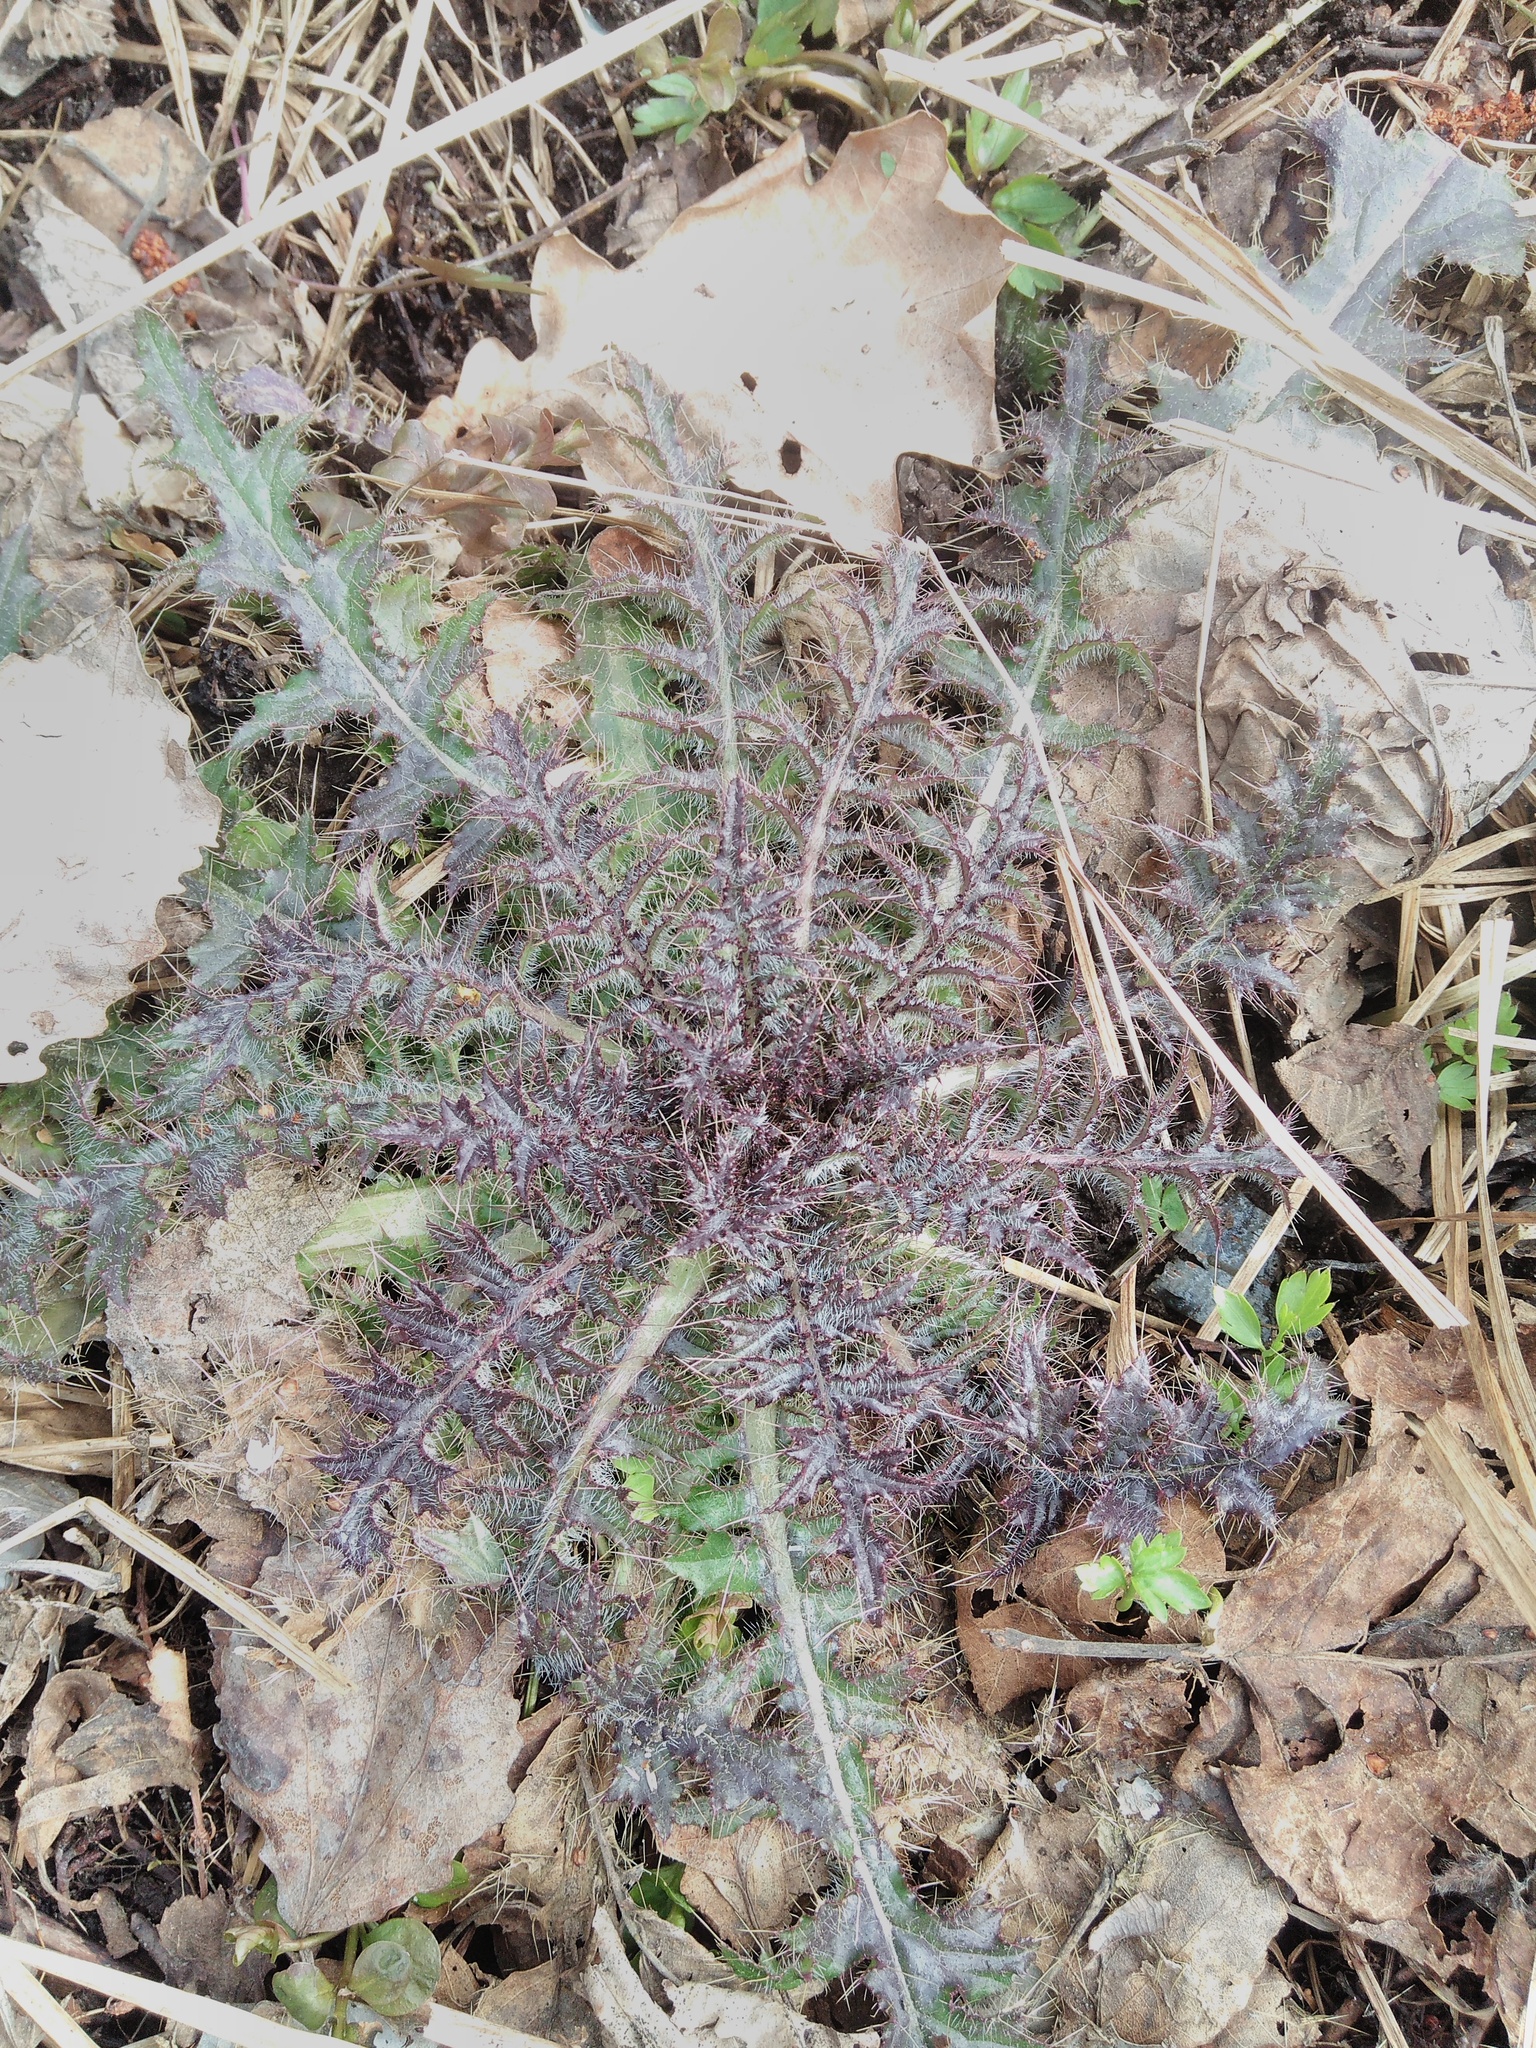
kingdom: Plantae
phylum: Tracheophyta
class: Magnoliopsida
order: Asterales
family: Asteraceae
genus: Cirsium
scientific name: Cirsium palustre
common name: Marsh thistle
